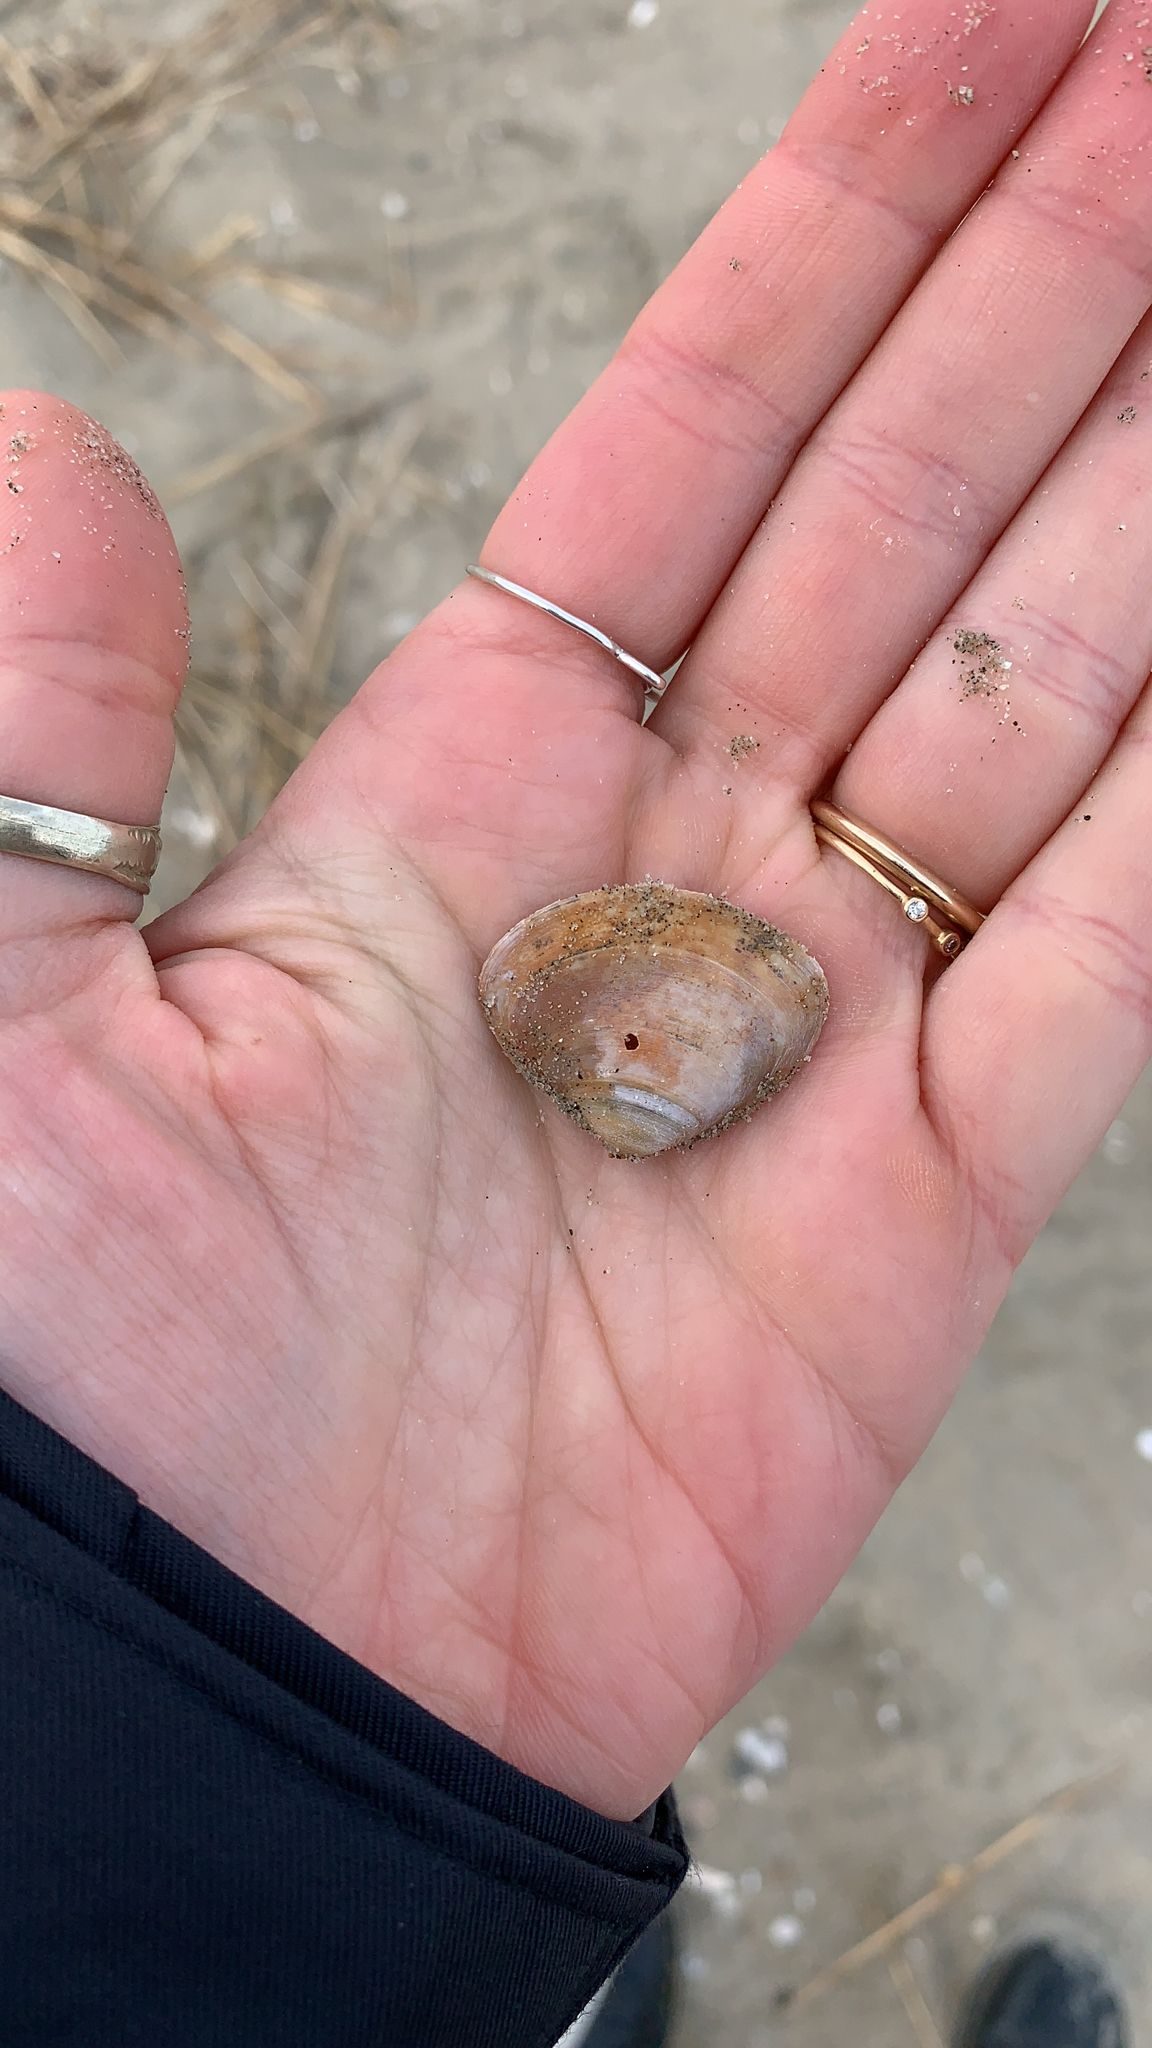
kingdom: Animalia
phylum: Mollusca
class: Bivalvia
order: Venerida
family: Mactridae
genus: Spisula
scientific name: Spisula solidissima
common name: Atlantic surf clam
